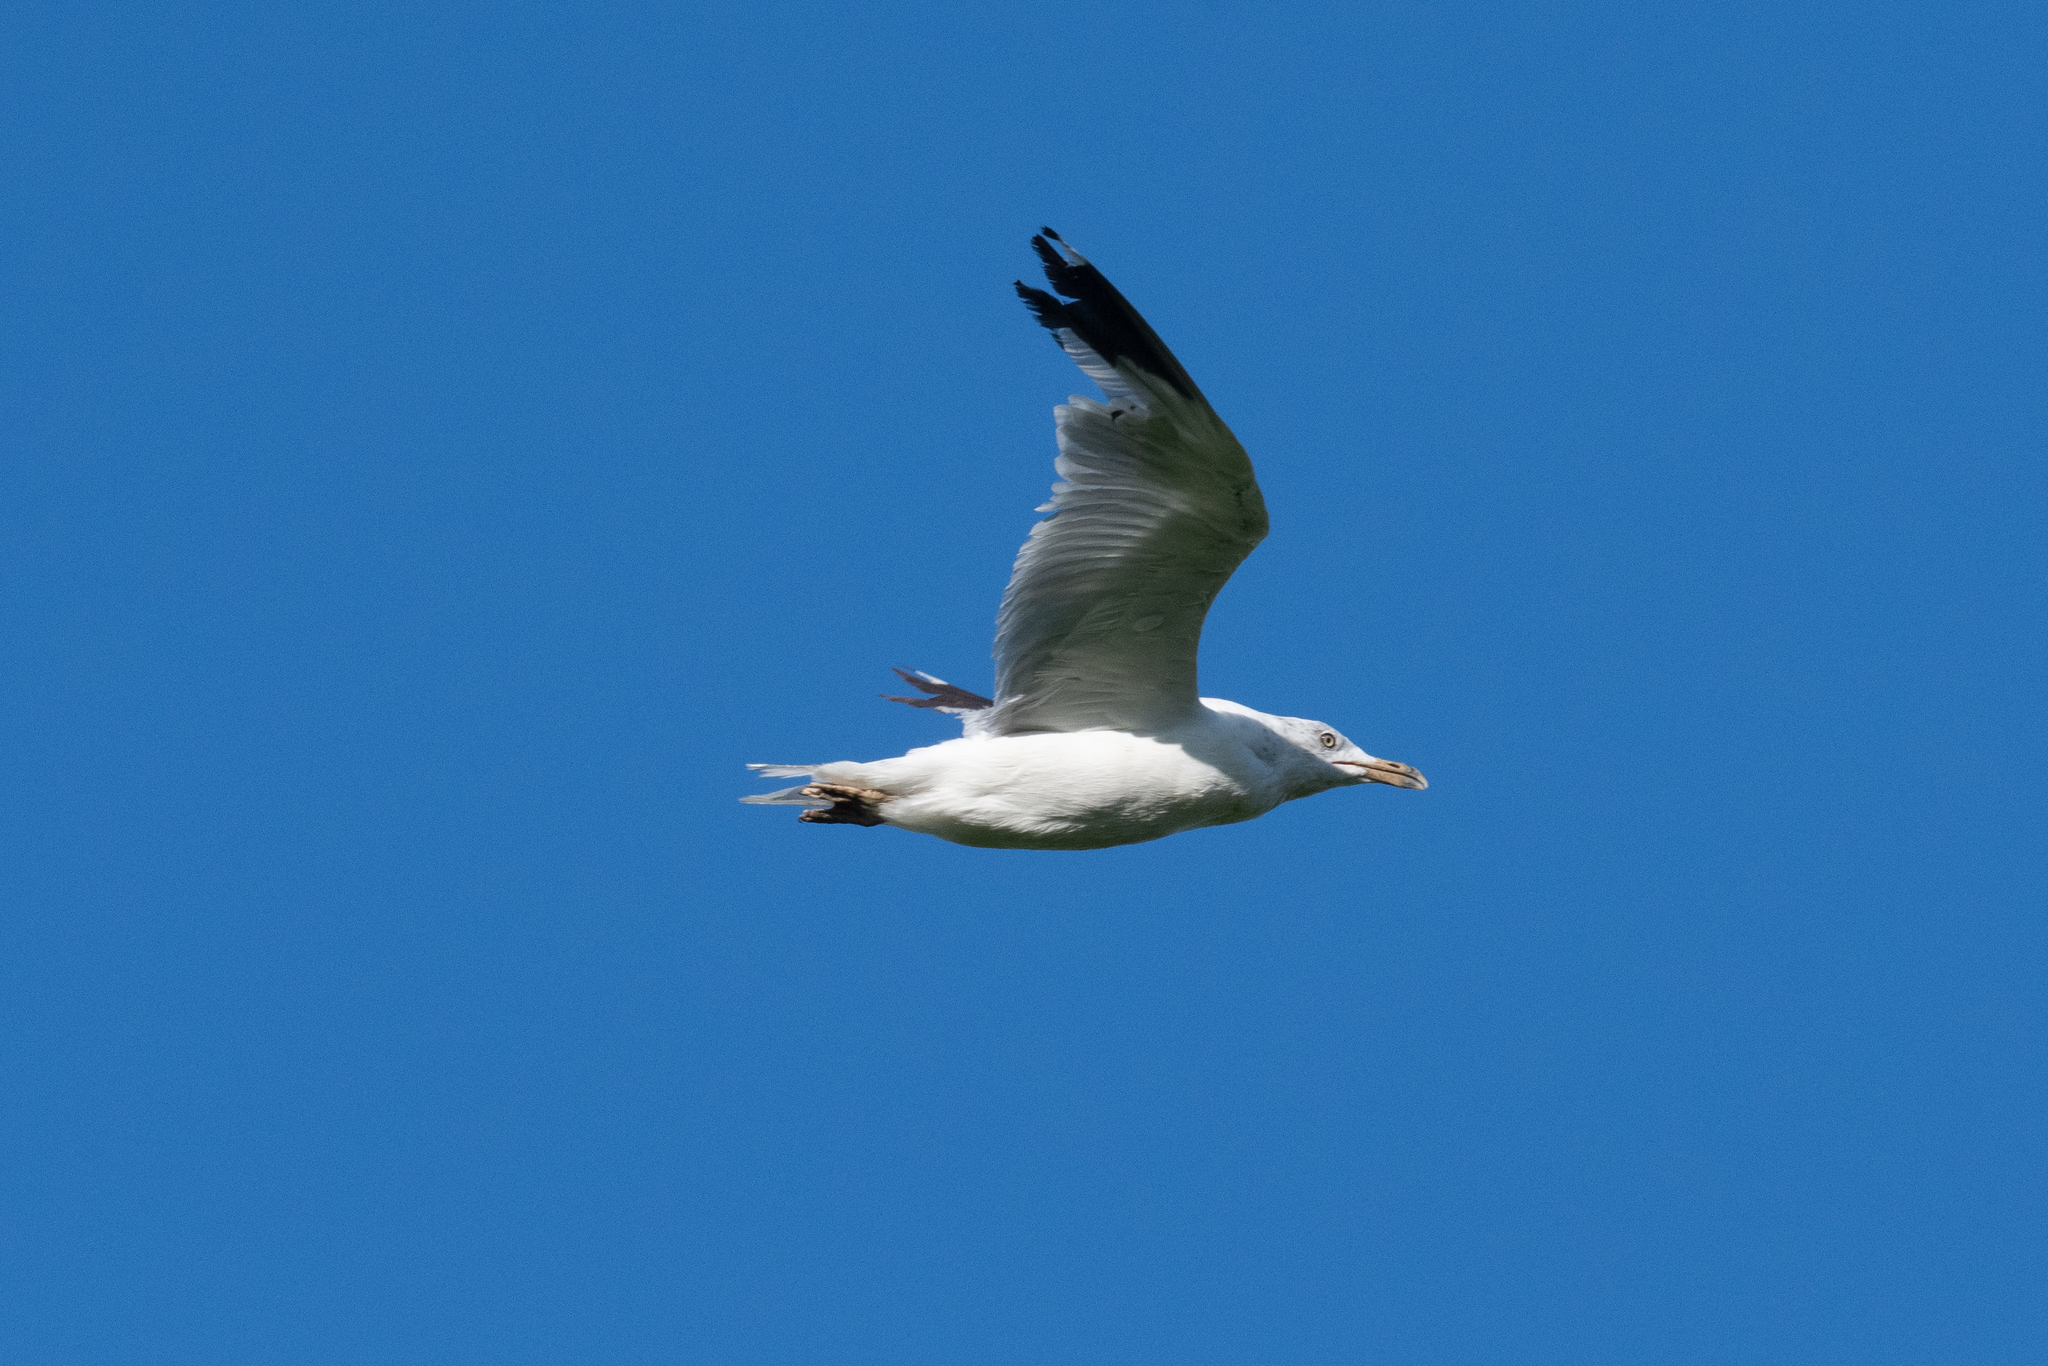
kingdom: Animalia
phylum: Chordata
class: Aves
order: Charadriiformes
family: Laridae
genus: Larus
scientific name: Larus californicus
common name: California gull
